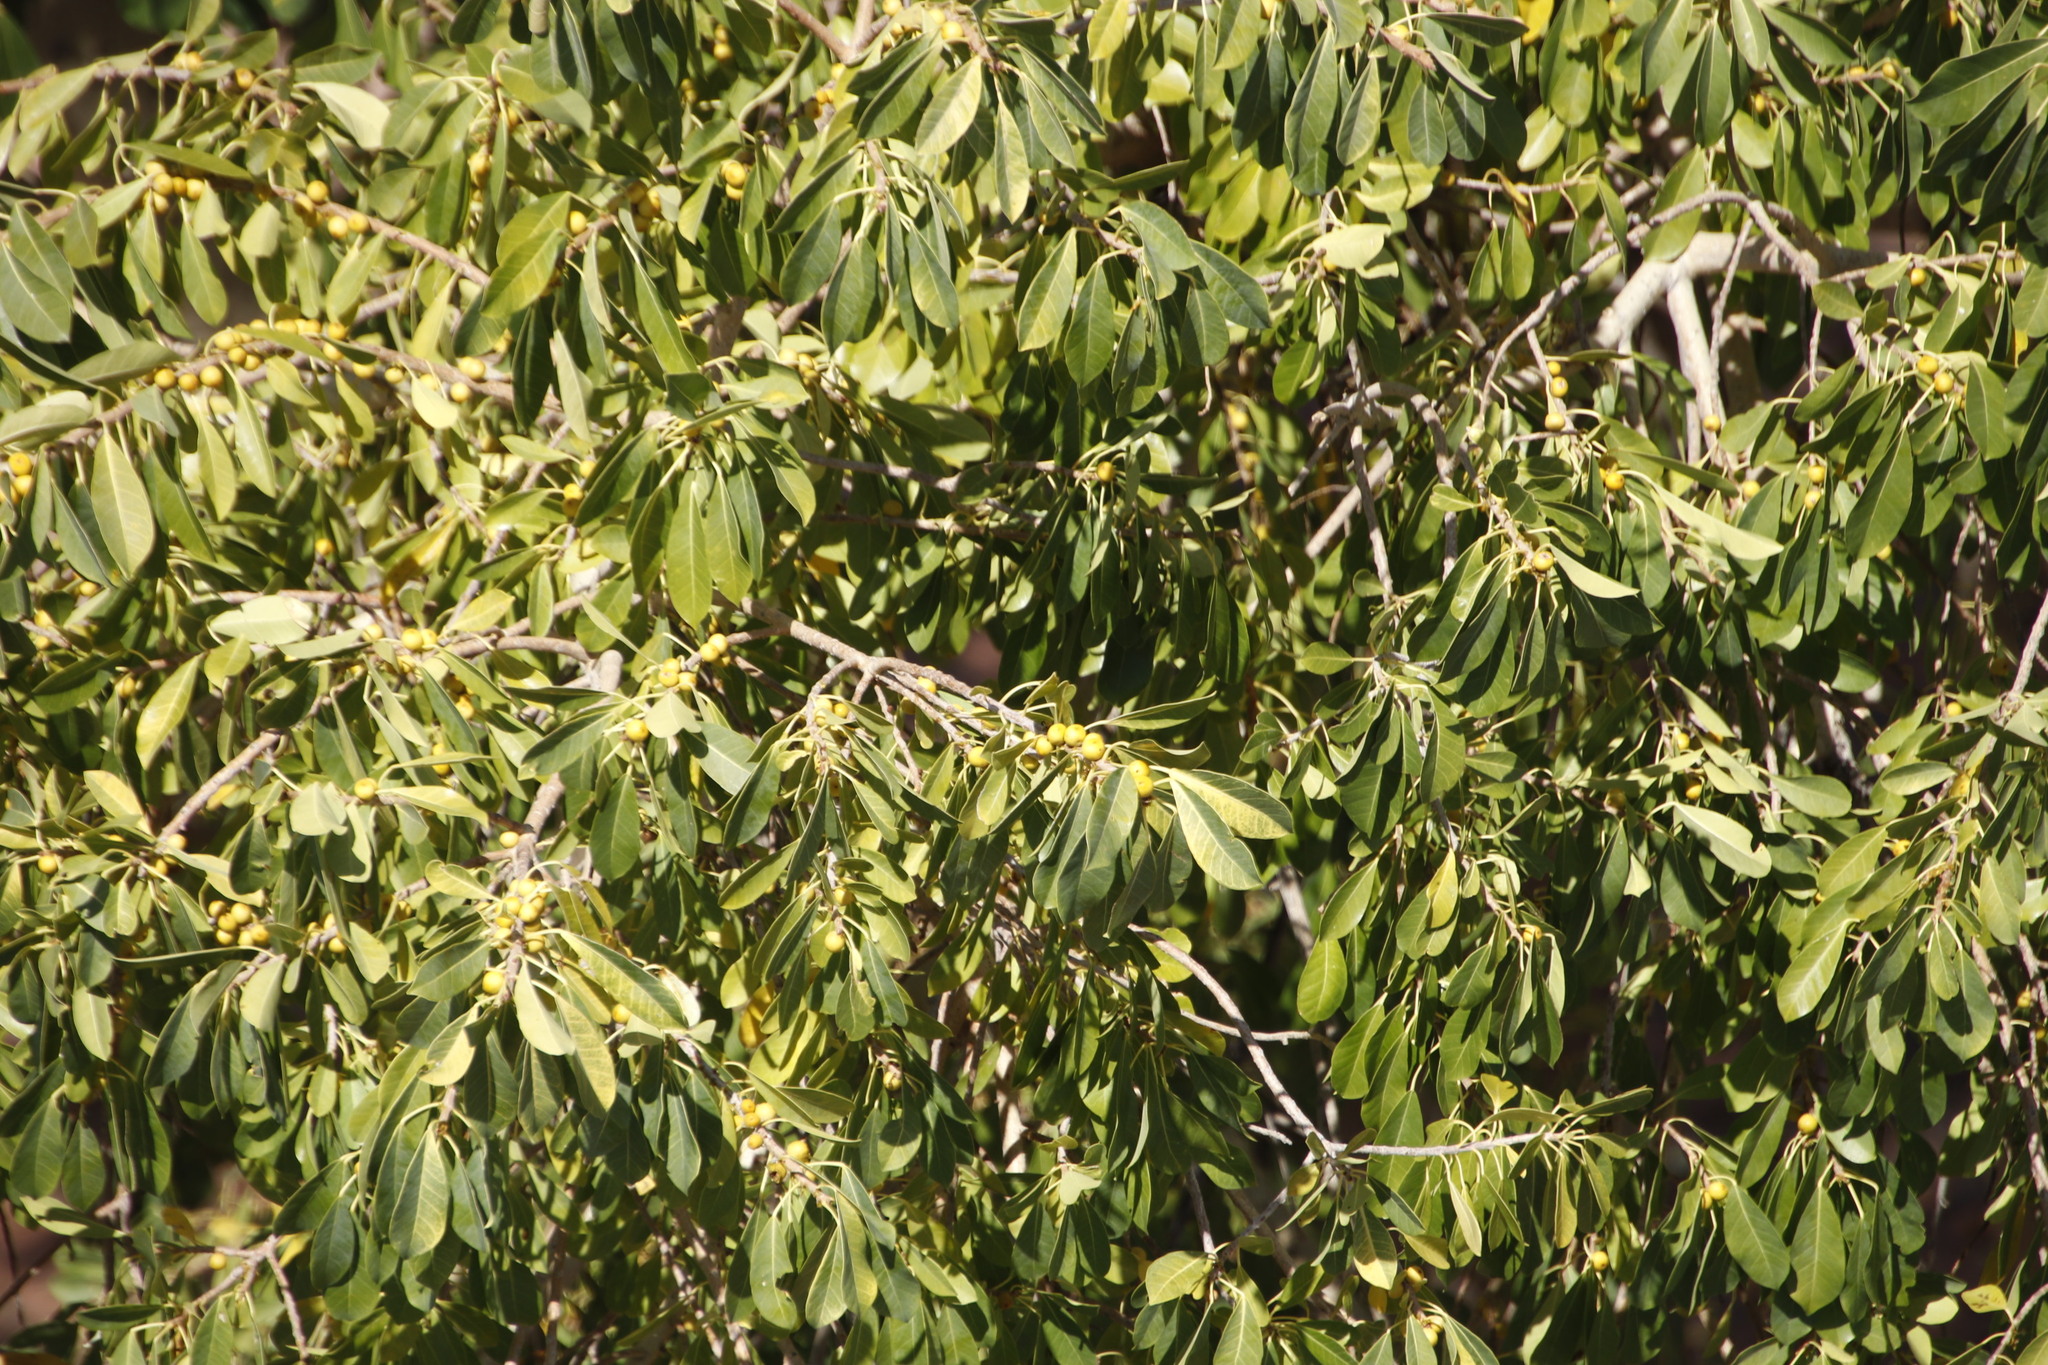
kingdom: Plantae
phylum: Tracheophyta
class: Magnoliopsida
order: Rosales
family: Moraceae
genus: Ficus
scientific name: Ficus thonningii
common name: Fig
